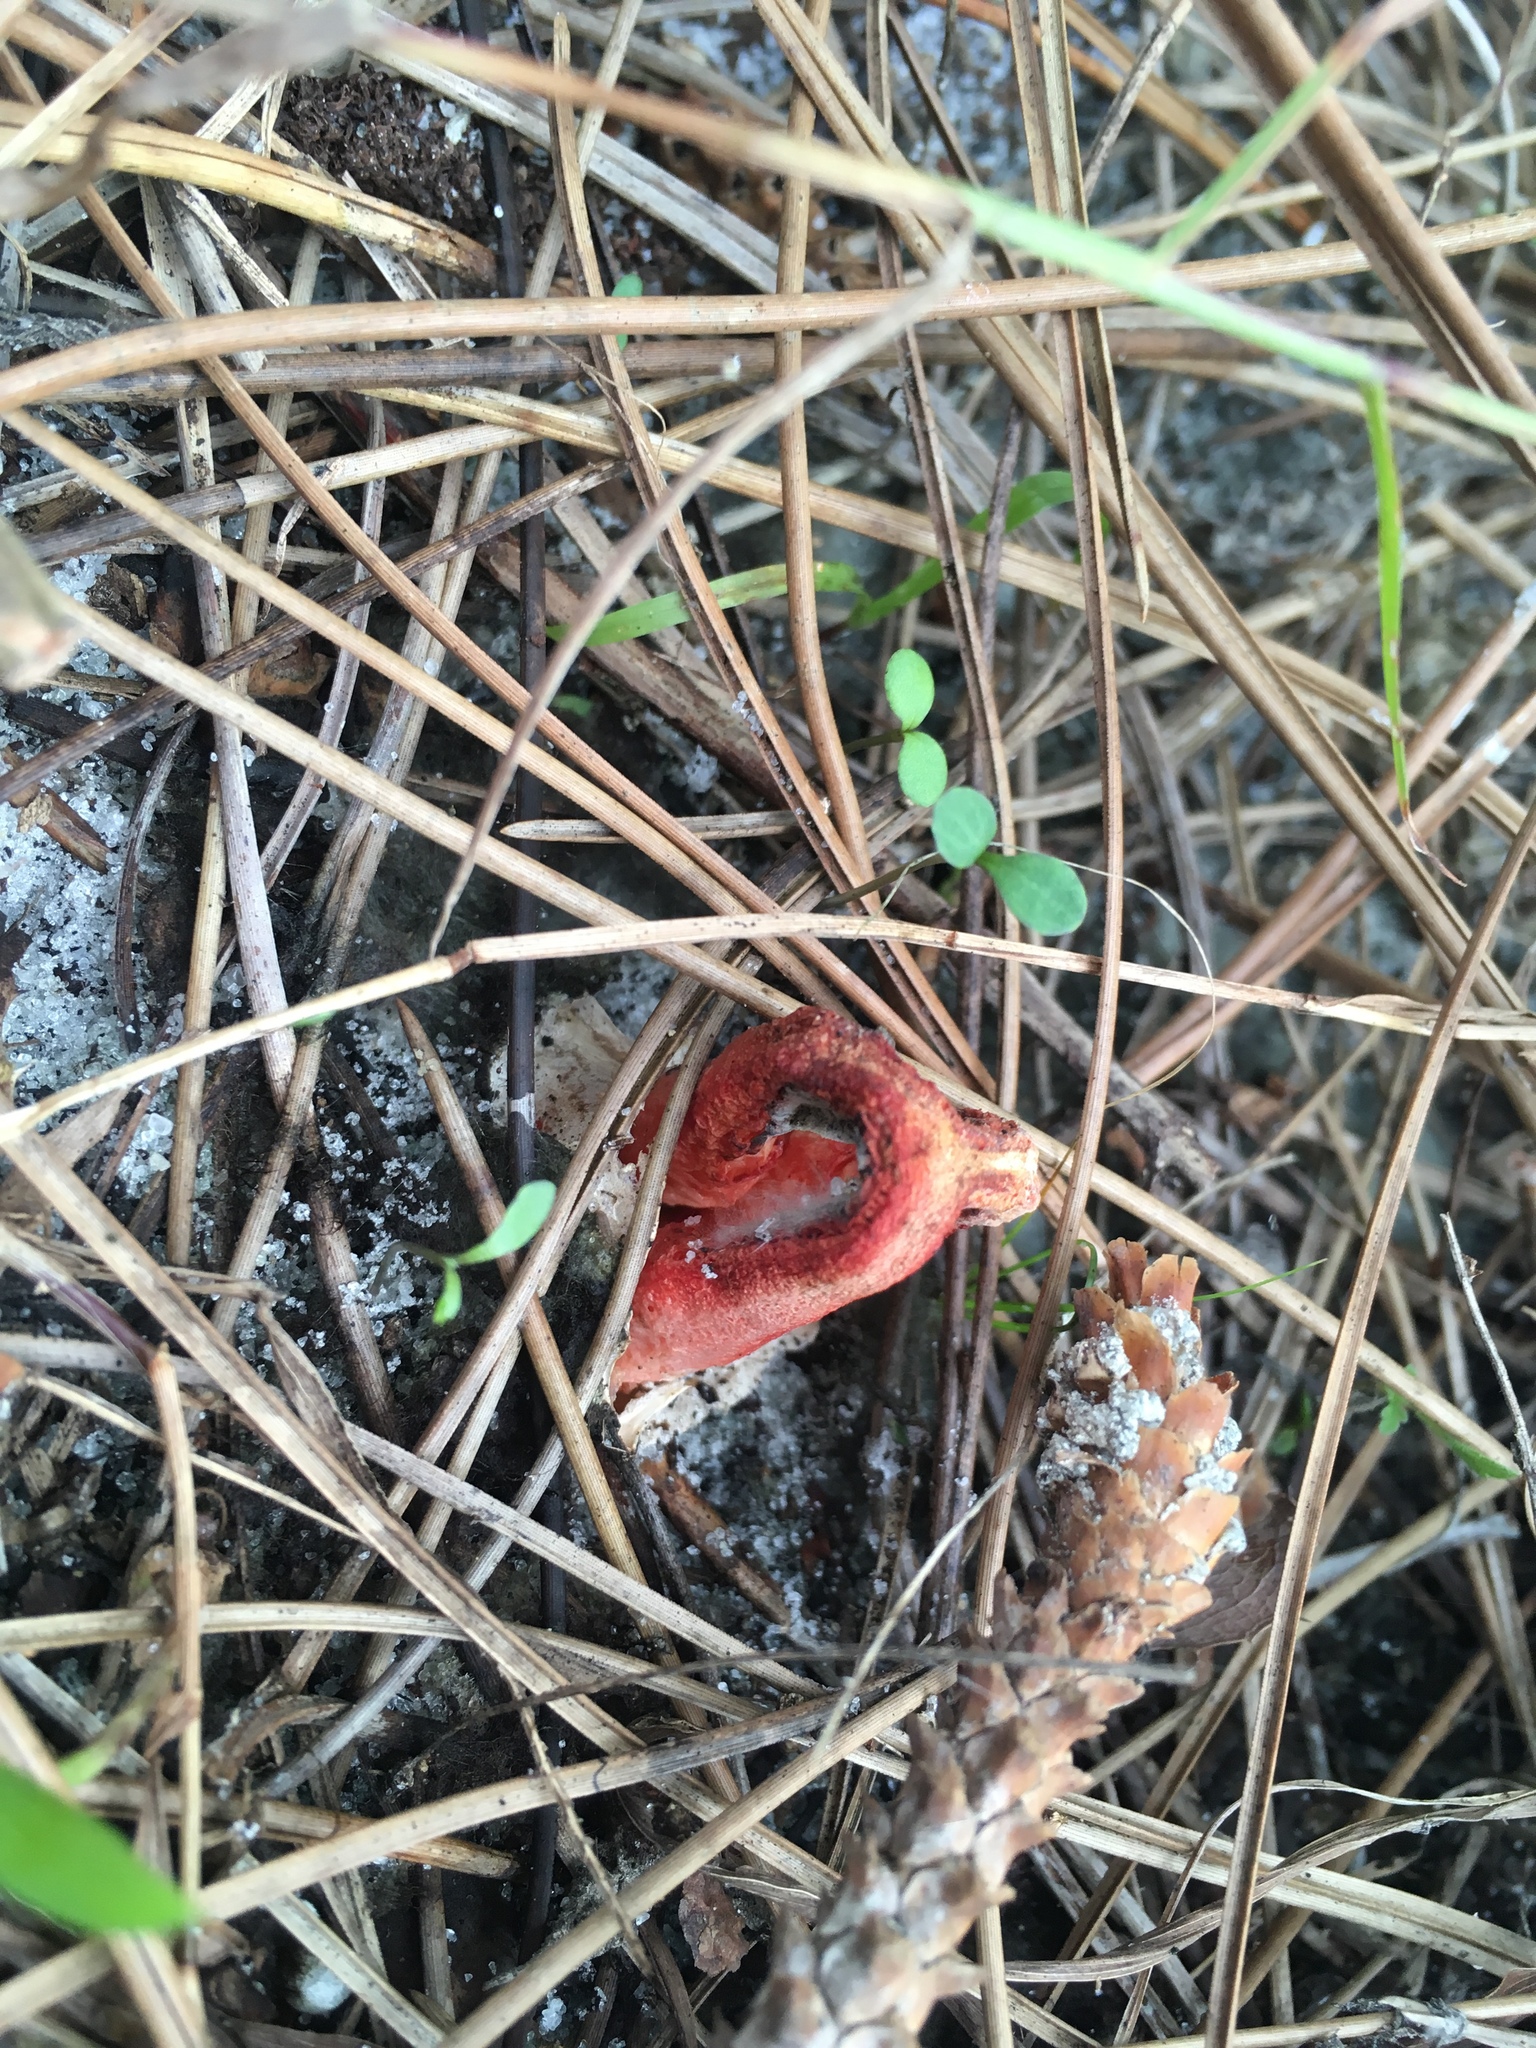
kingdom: Fungi
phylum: Basidiomycota
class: Agaricomycetes
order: Phallales
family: Phallaceae
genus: Clathrus
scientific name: Clathrus columnatus
